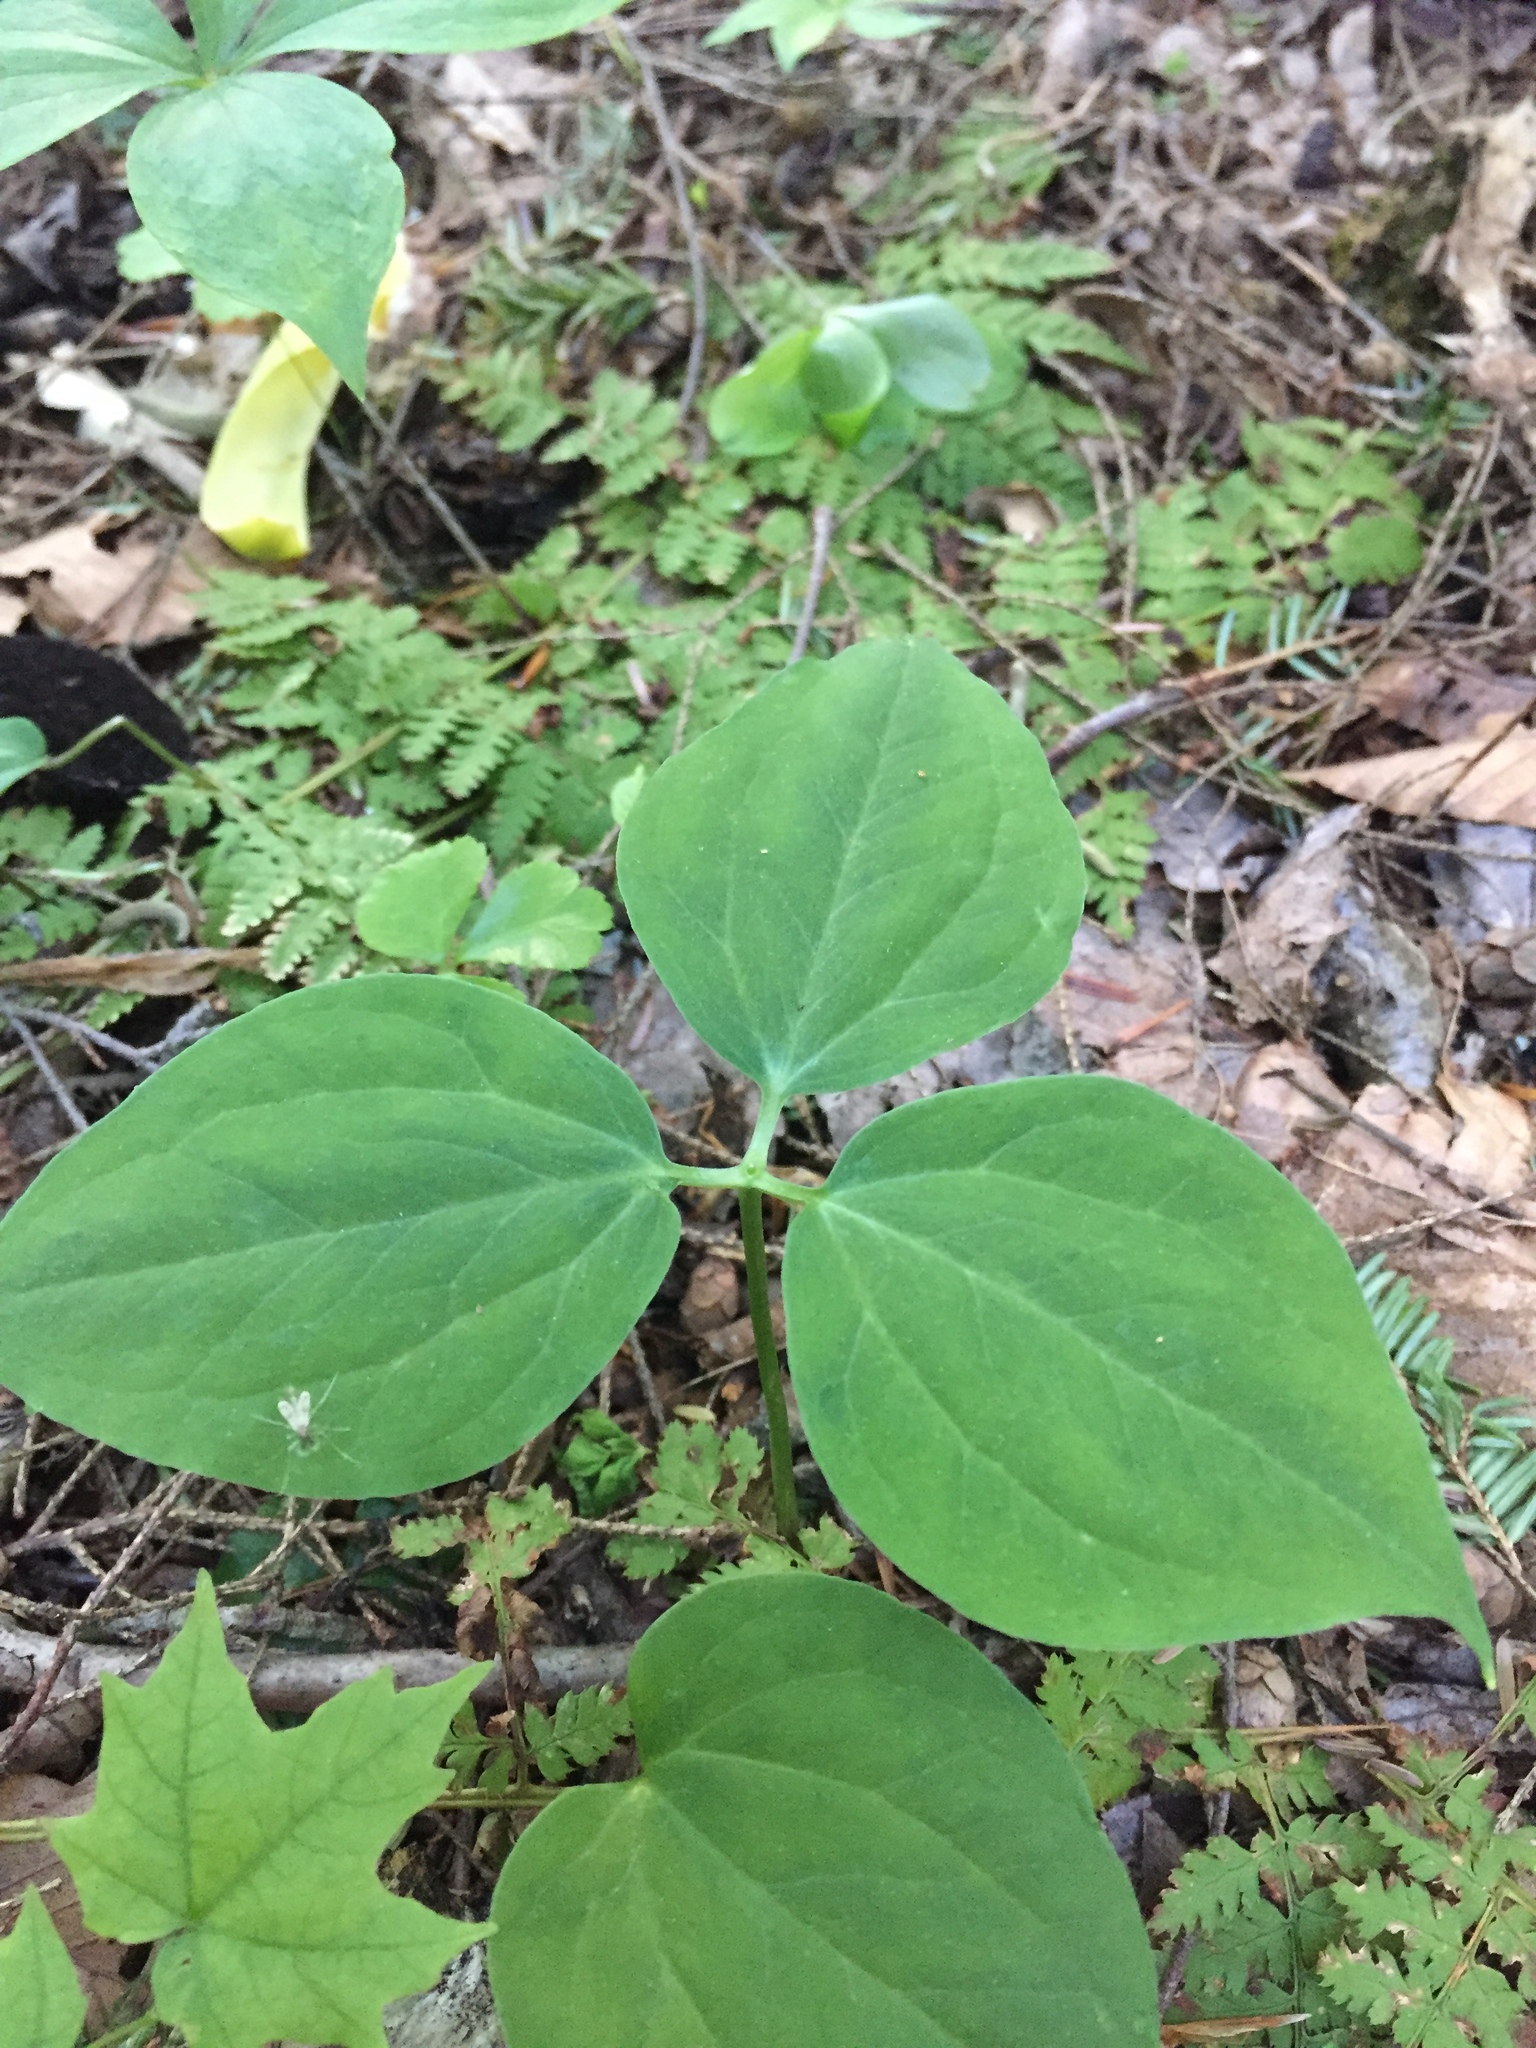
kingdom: Plantae
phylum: Tracheophyta
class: Liliopsida
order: Liliales
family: Melanthiaceae
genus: Trillium
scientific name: Trillium undulatum
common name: Paint trillium
